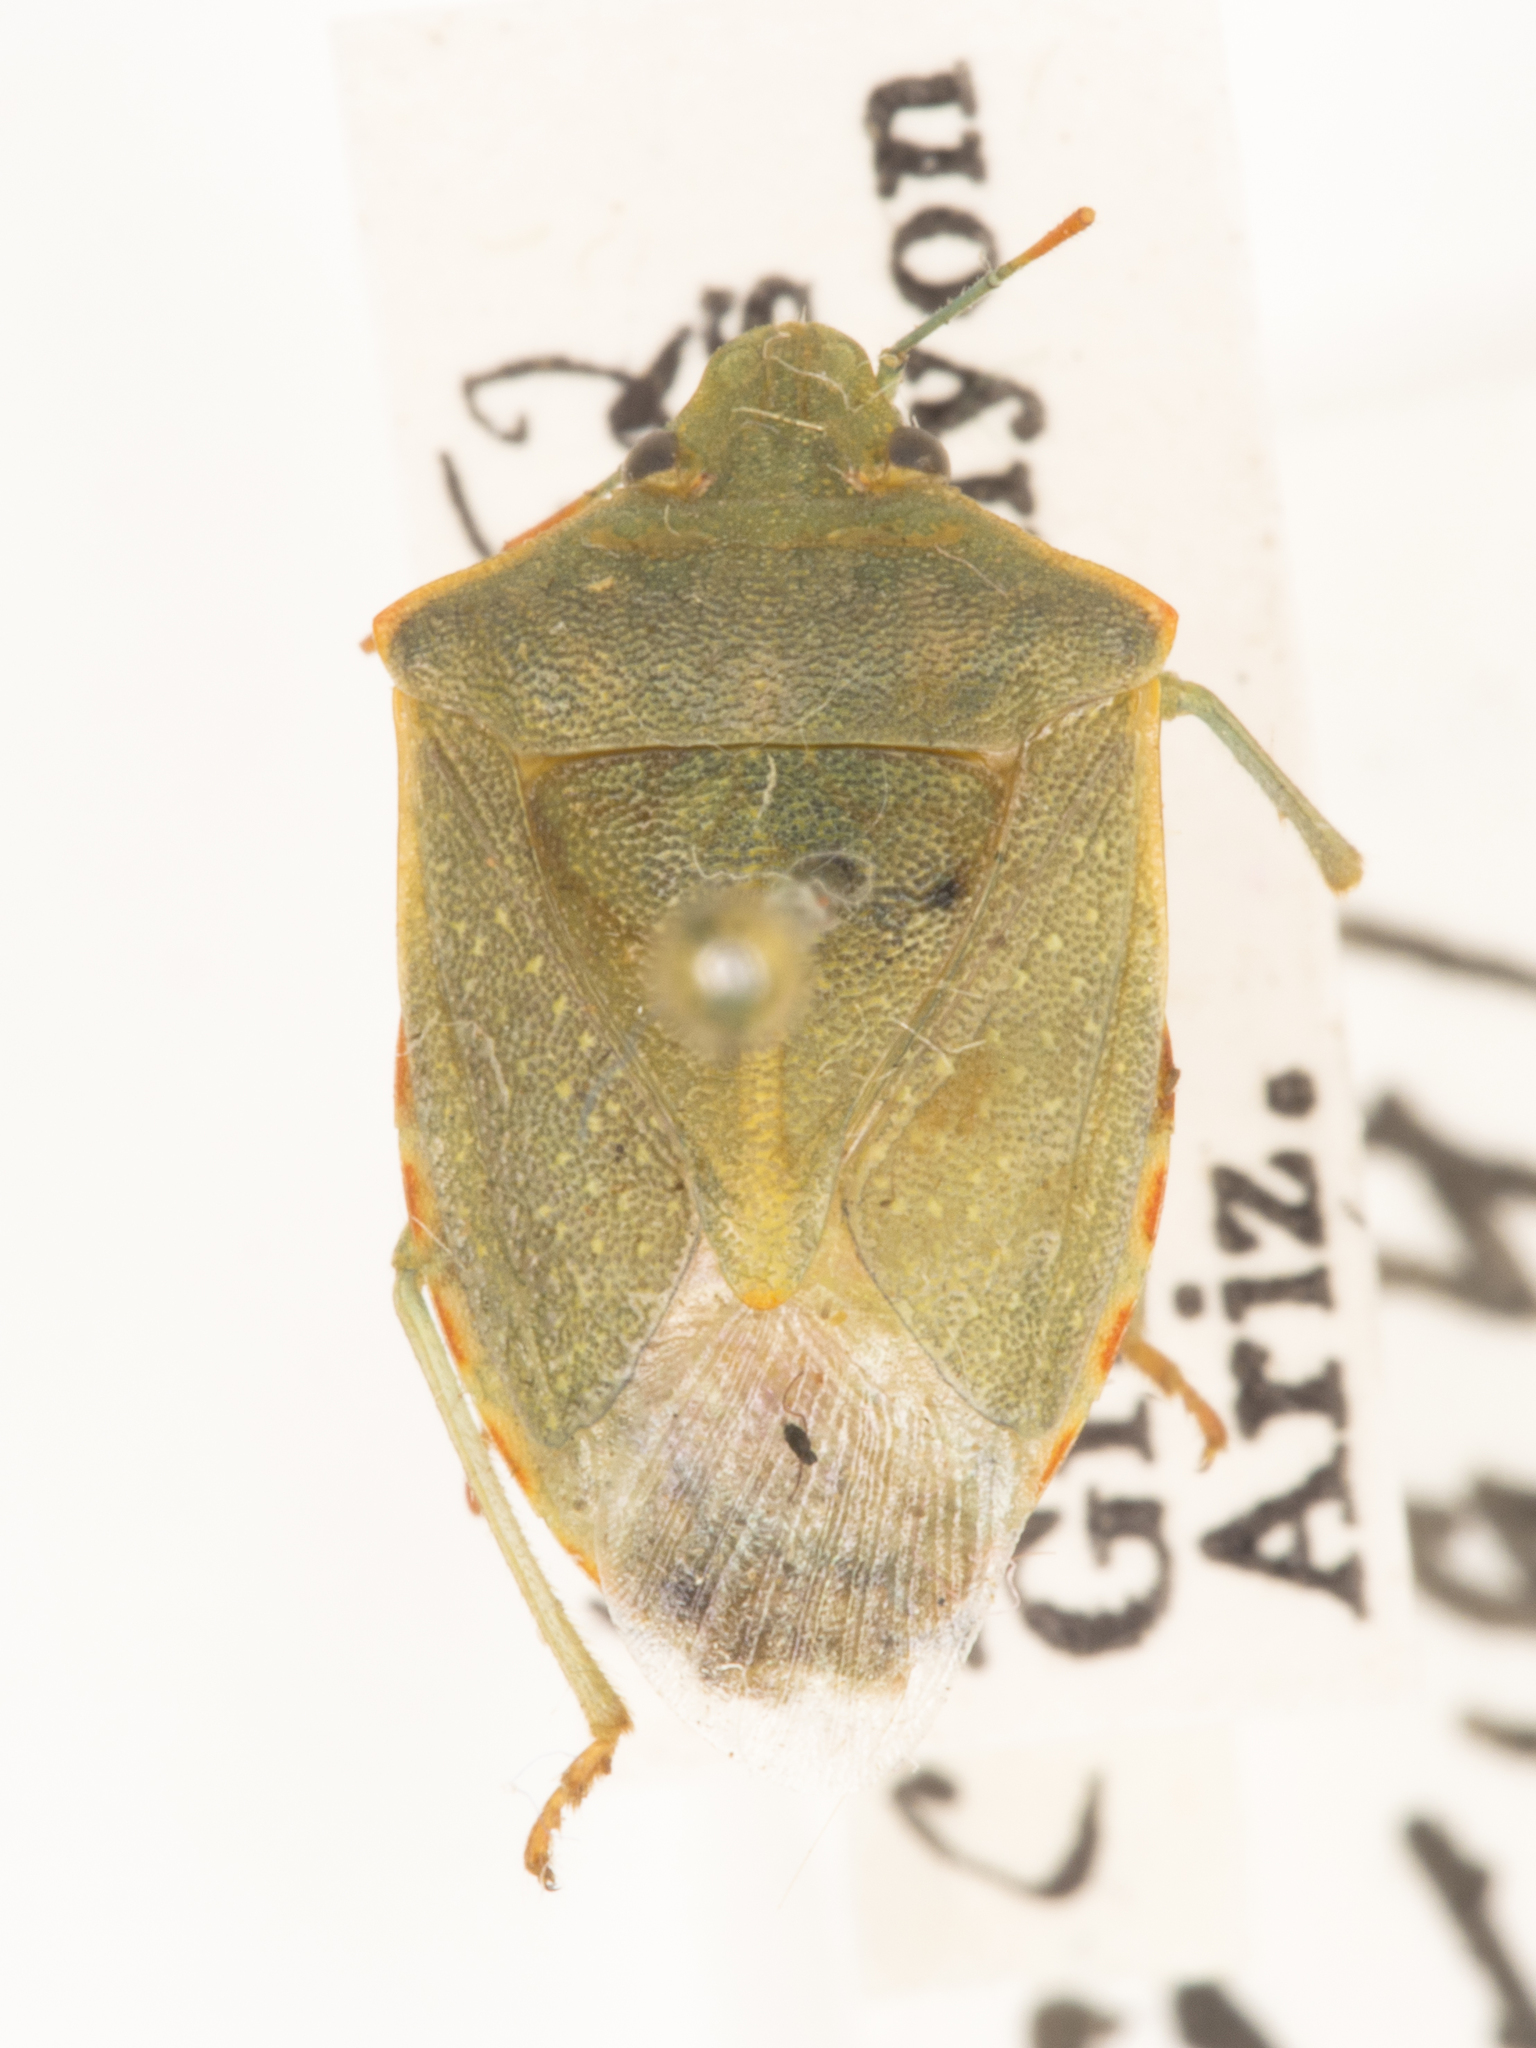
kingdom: Animalia
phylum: Arthropoda
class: Insecta
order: Hemiptera
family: Pentatomidae
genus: Thyanta
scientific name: Thyanta accerra
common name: Stink bug
